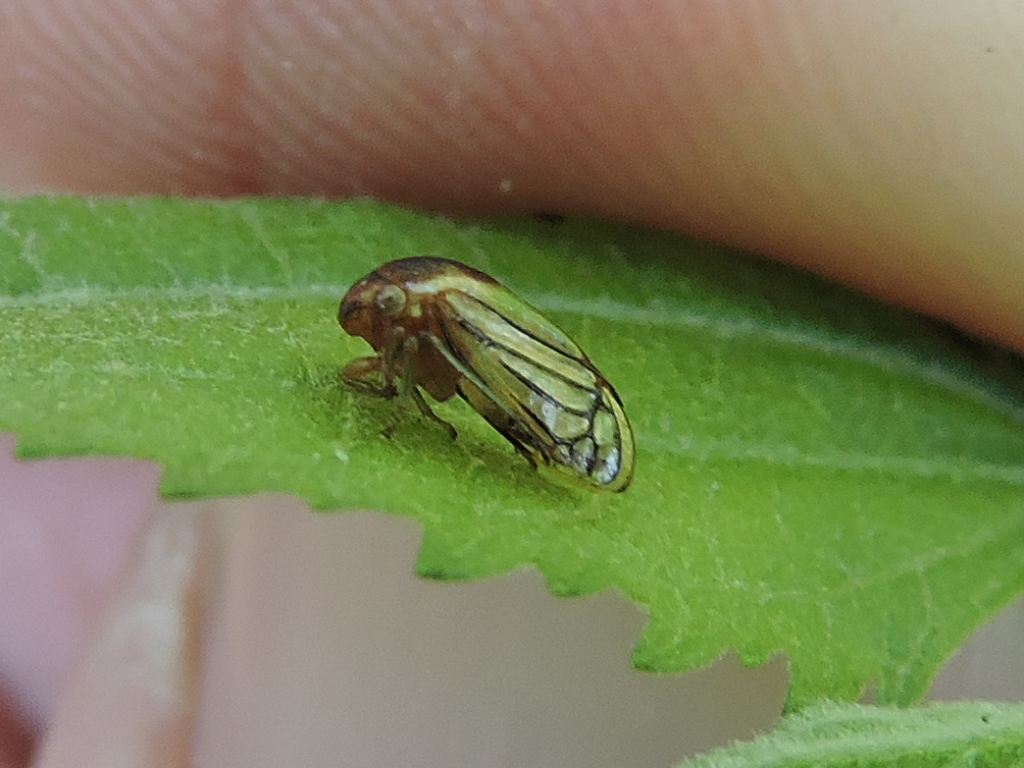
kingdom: Animalia
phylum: Arthropoda
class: Insecta
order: Hemiptera
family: Membracidae
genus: Acutalis
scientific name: Acutalis tartarea
